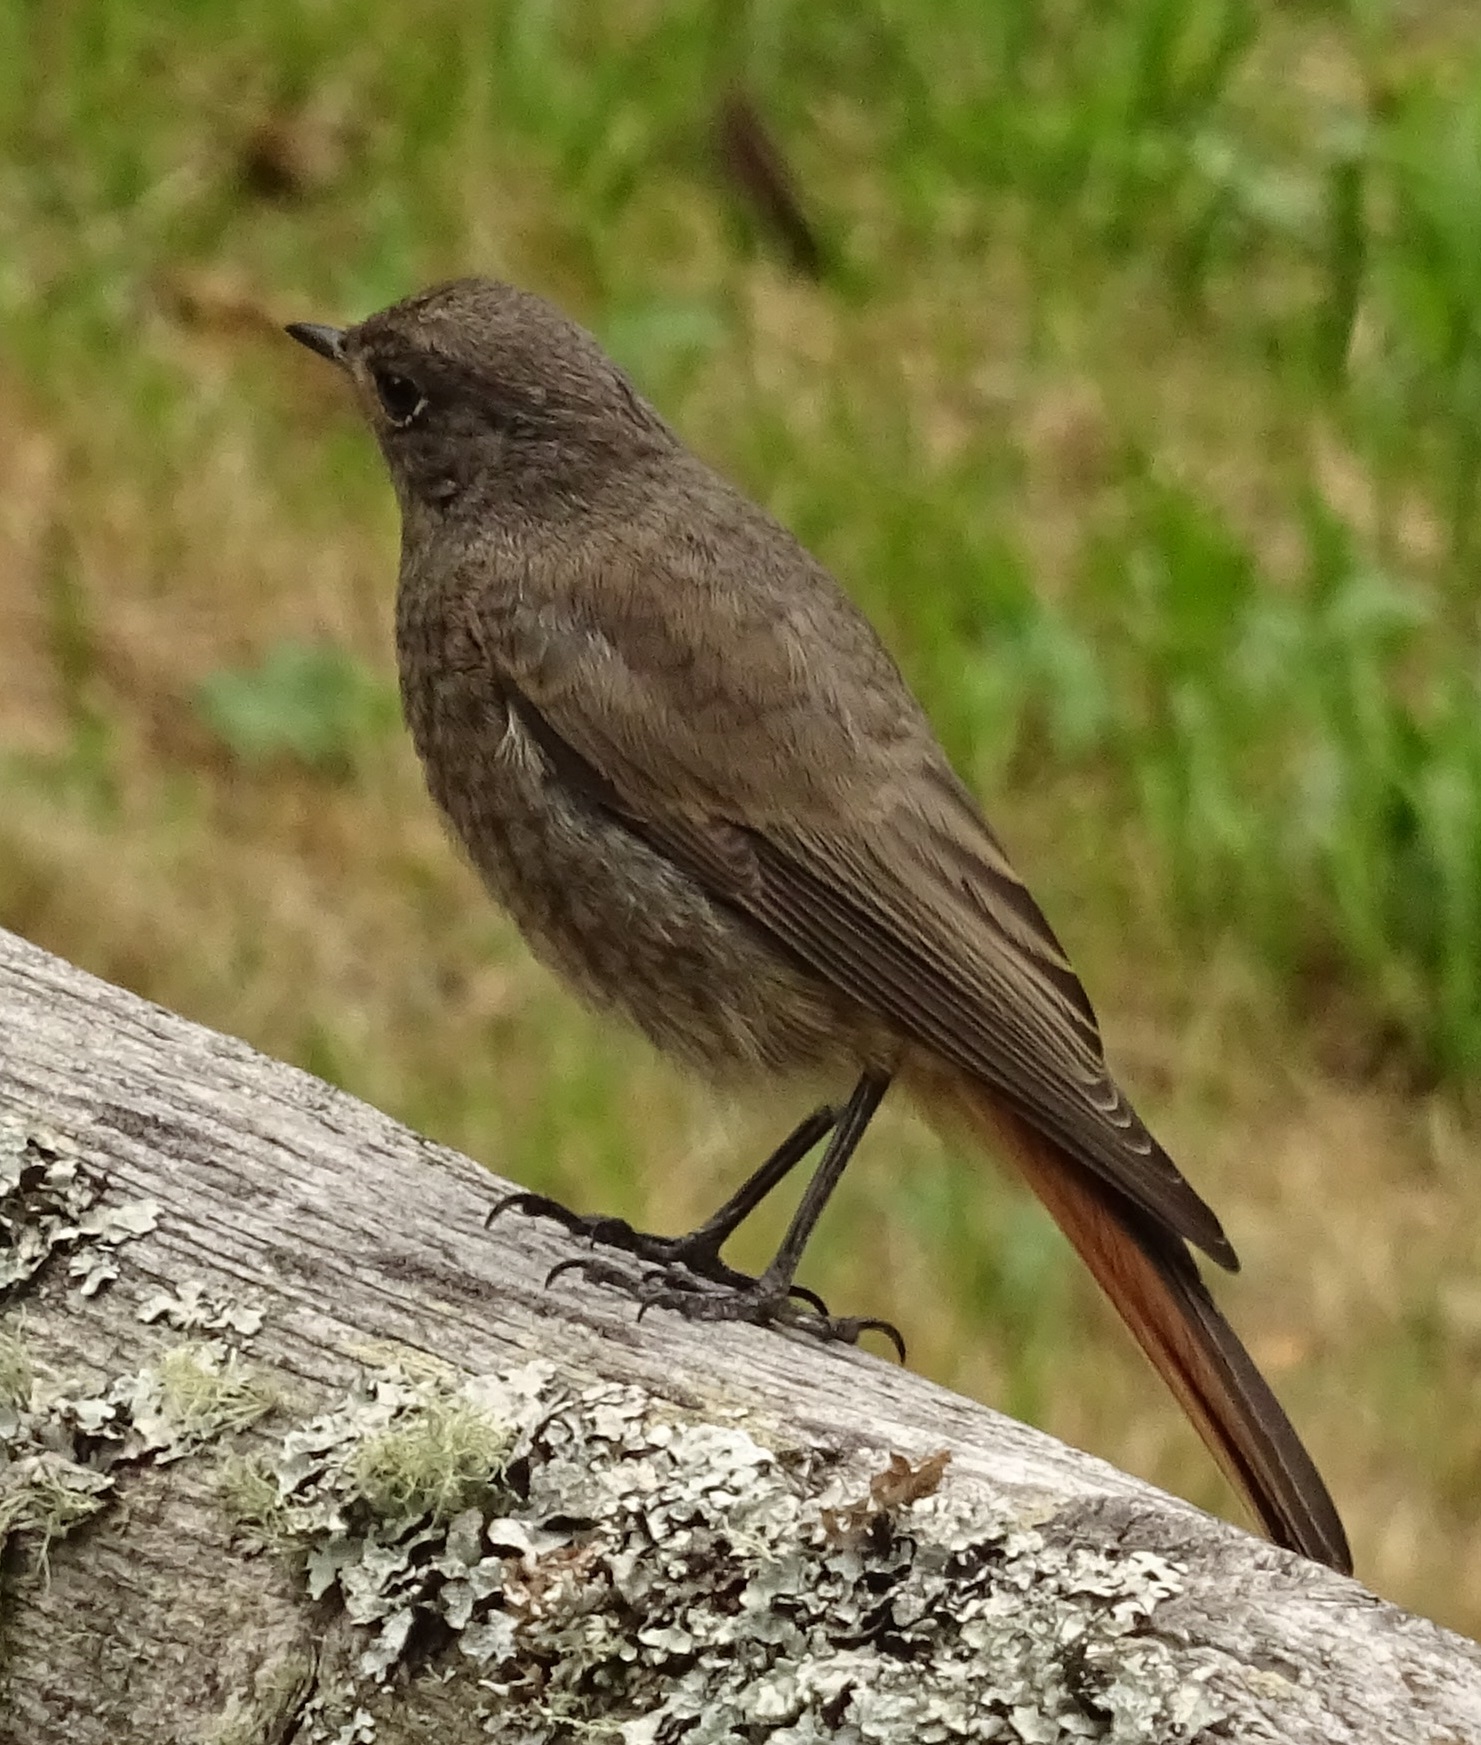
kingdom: Animalia
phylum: Chordata
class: Aves
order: Passeriformes
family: Muscicapidae
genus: Phoenicurus
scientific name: Phoenicurus ochruros
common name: Black redstart
